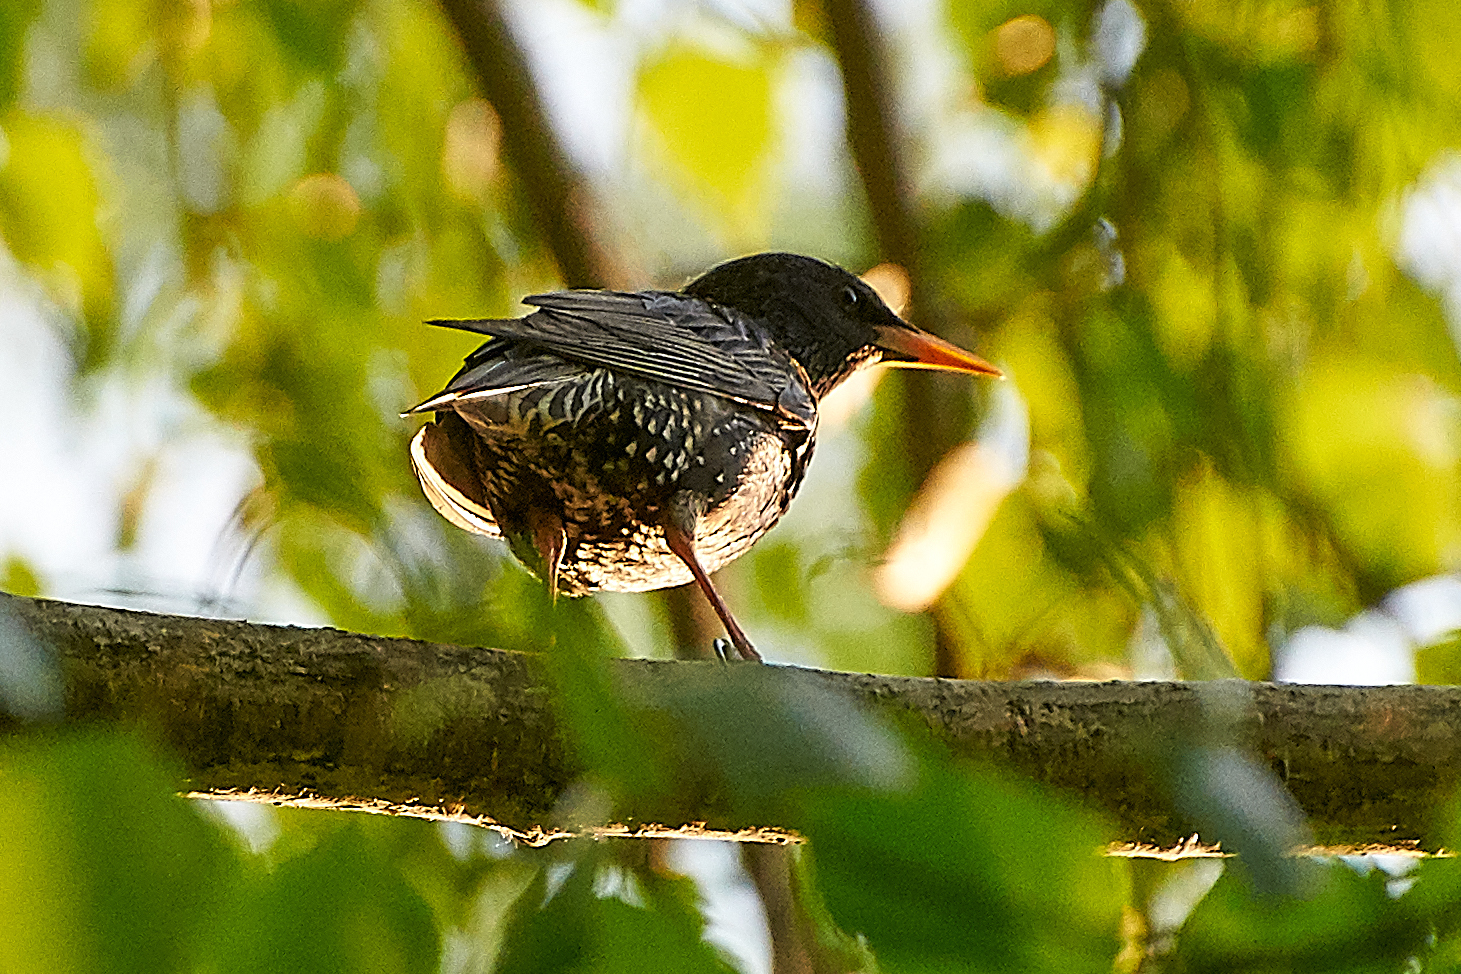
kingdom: Animalia
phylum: Chordata
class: Aves
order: Passeriformes
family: Sturnidae
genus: Sturnus
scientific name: Sturnus vulgaris
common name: Common starling
